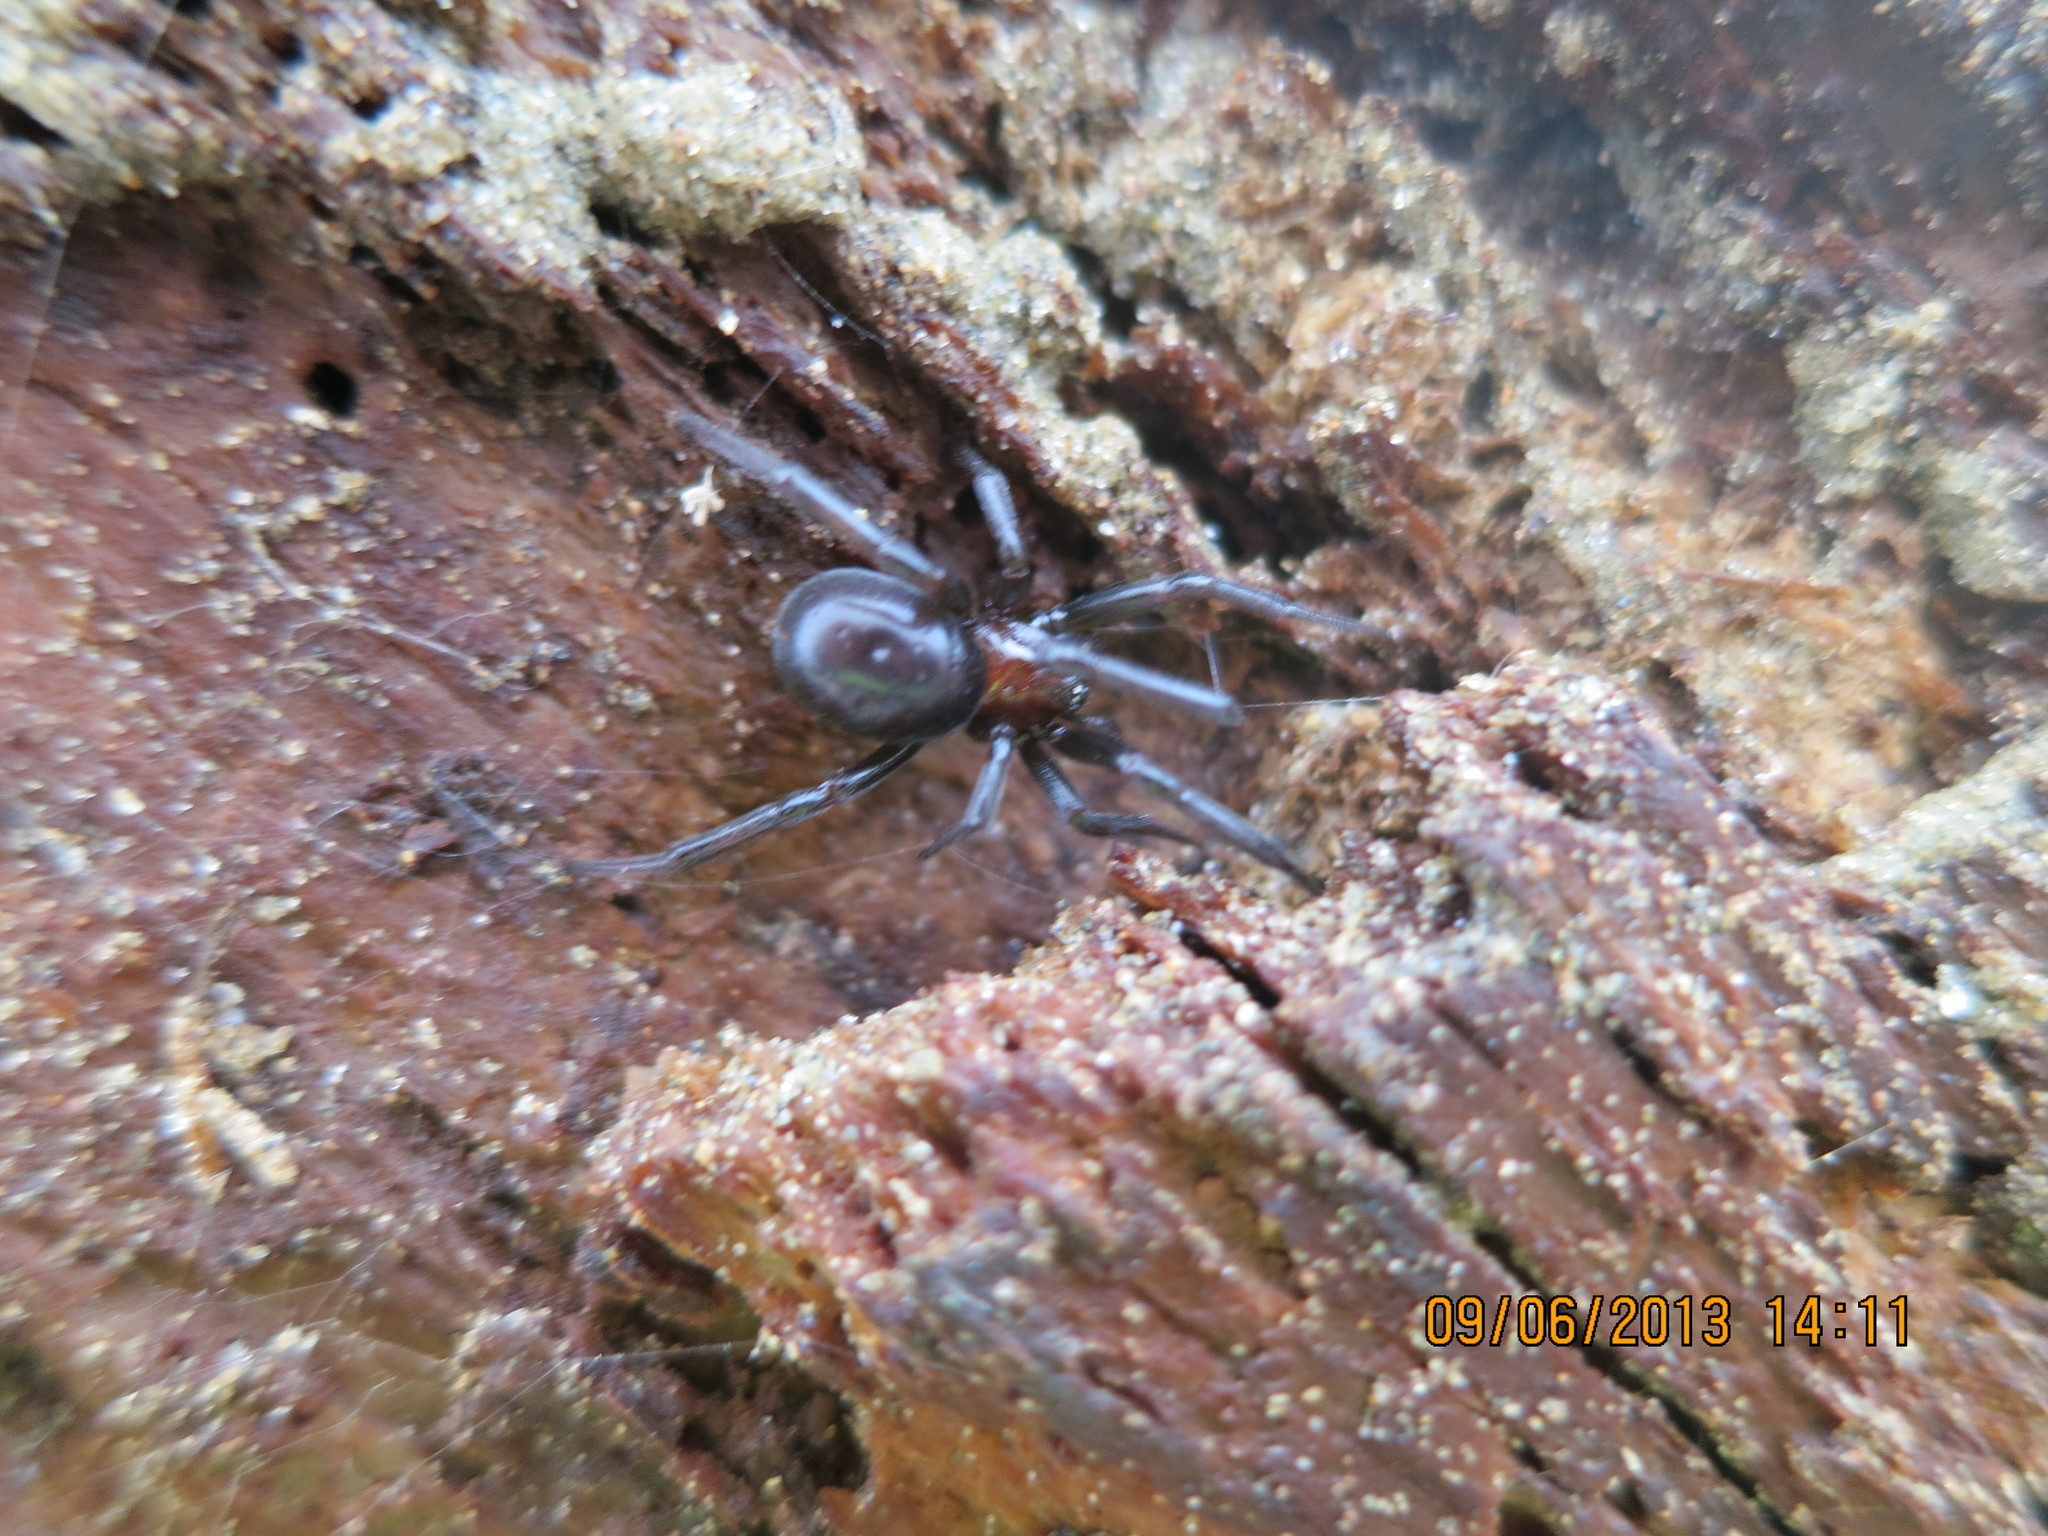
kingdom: Animalia
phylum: Arthropoda
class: Arachnida
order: Araneae
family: Theridiidae
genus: Steatoda
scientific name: Steatoda capensis
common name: Cobweb weaver
